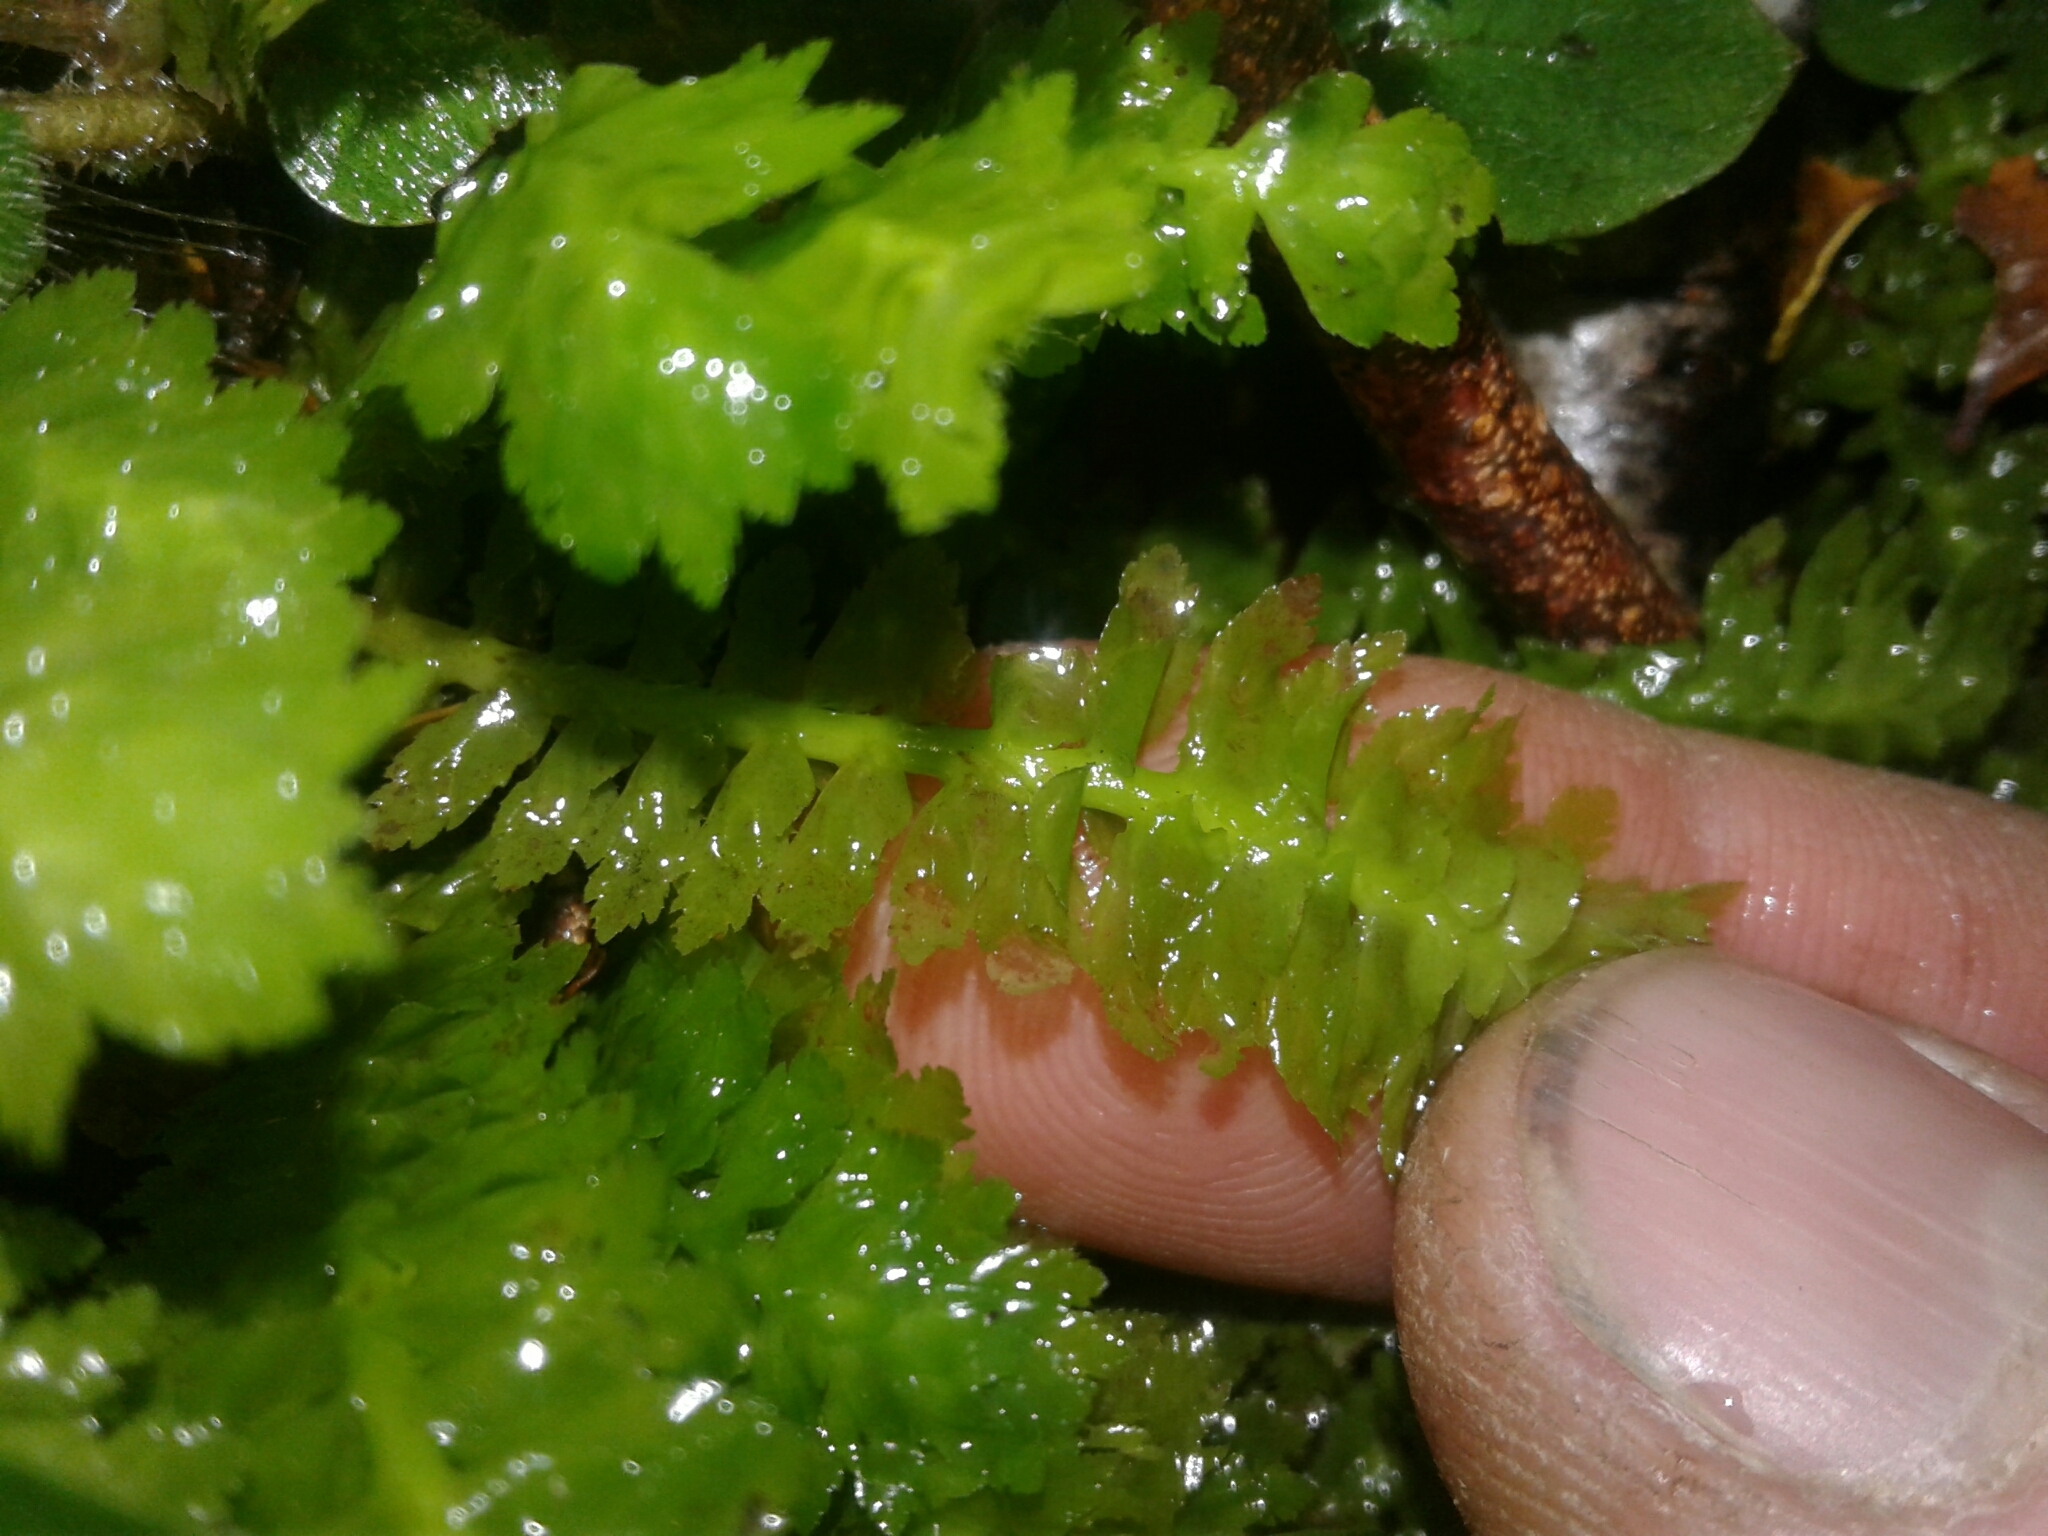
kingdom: Plantae
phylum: Marchantiophyta
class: Jungermanniopsida
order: Jungermanniales
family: Schistochilaceae
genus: Schistochila
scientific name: Schistochila appendiculata
